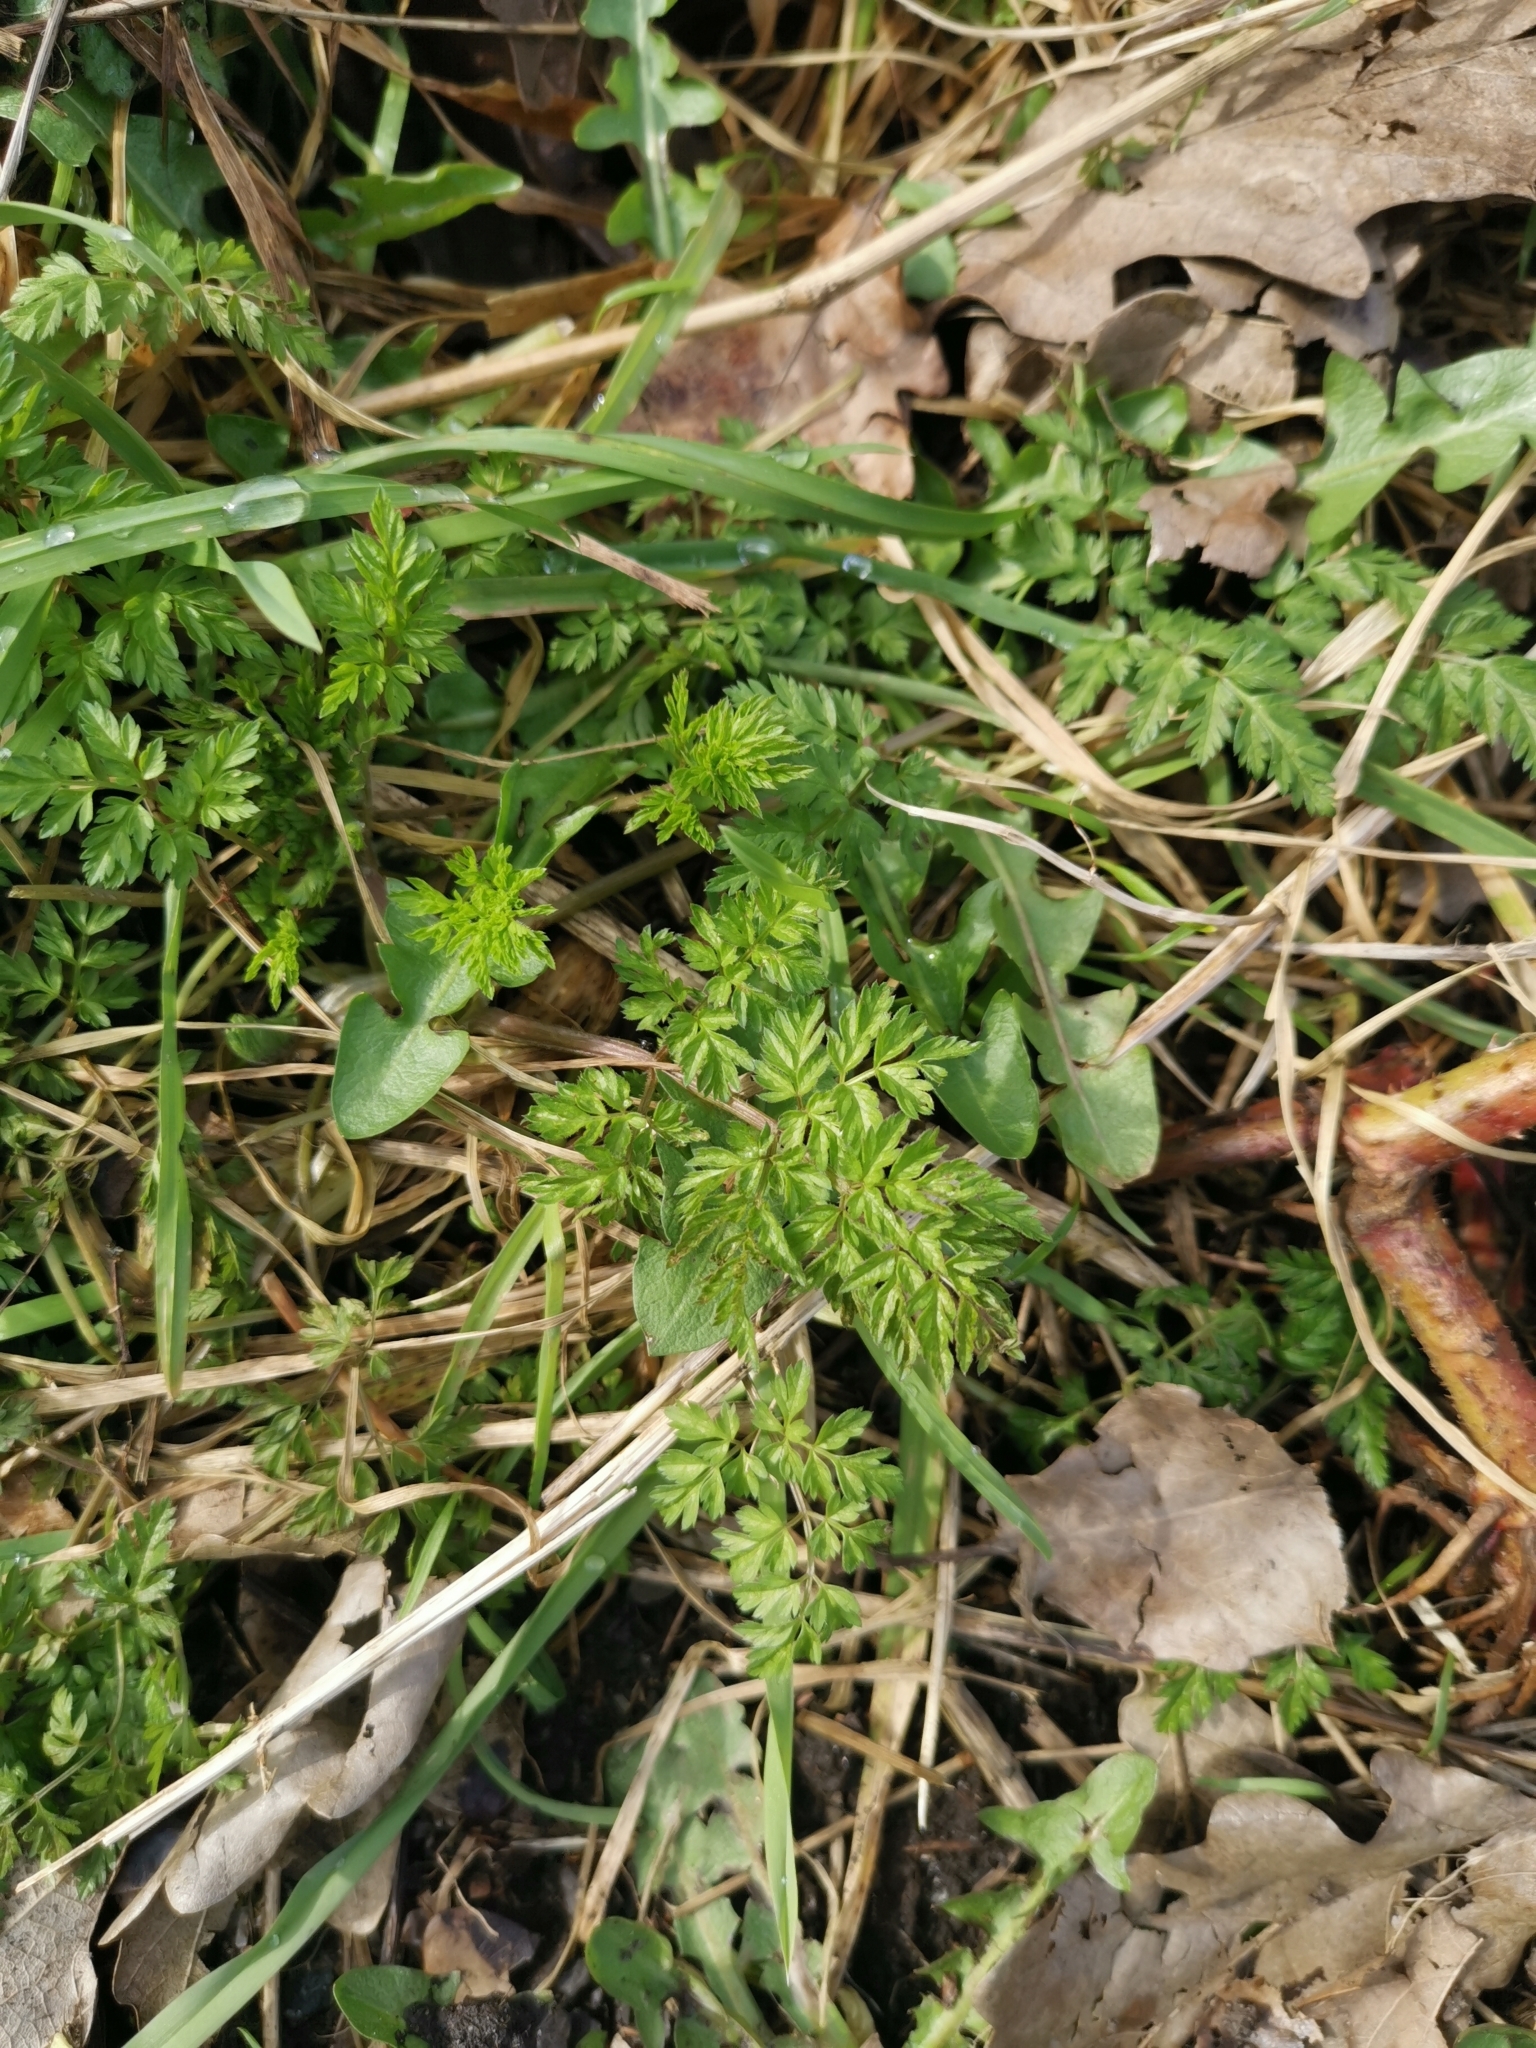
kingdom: Plantae
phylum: Tracheophyta
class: Magnoliopsida
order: Apiales
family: Apiaceae
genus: Anthriscus
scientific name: Anthriscus sylvestris
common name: Cow parsley
